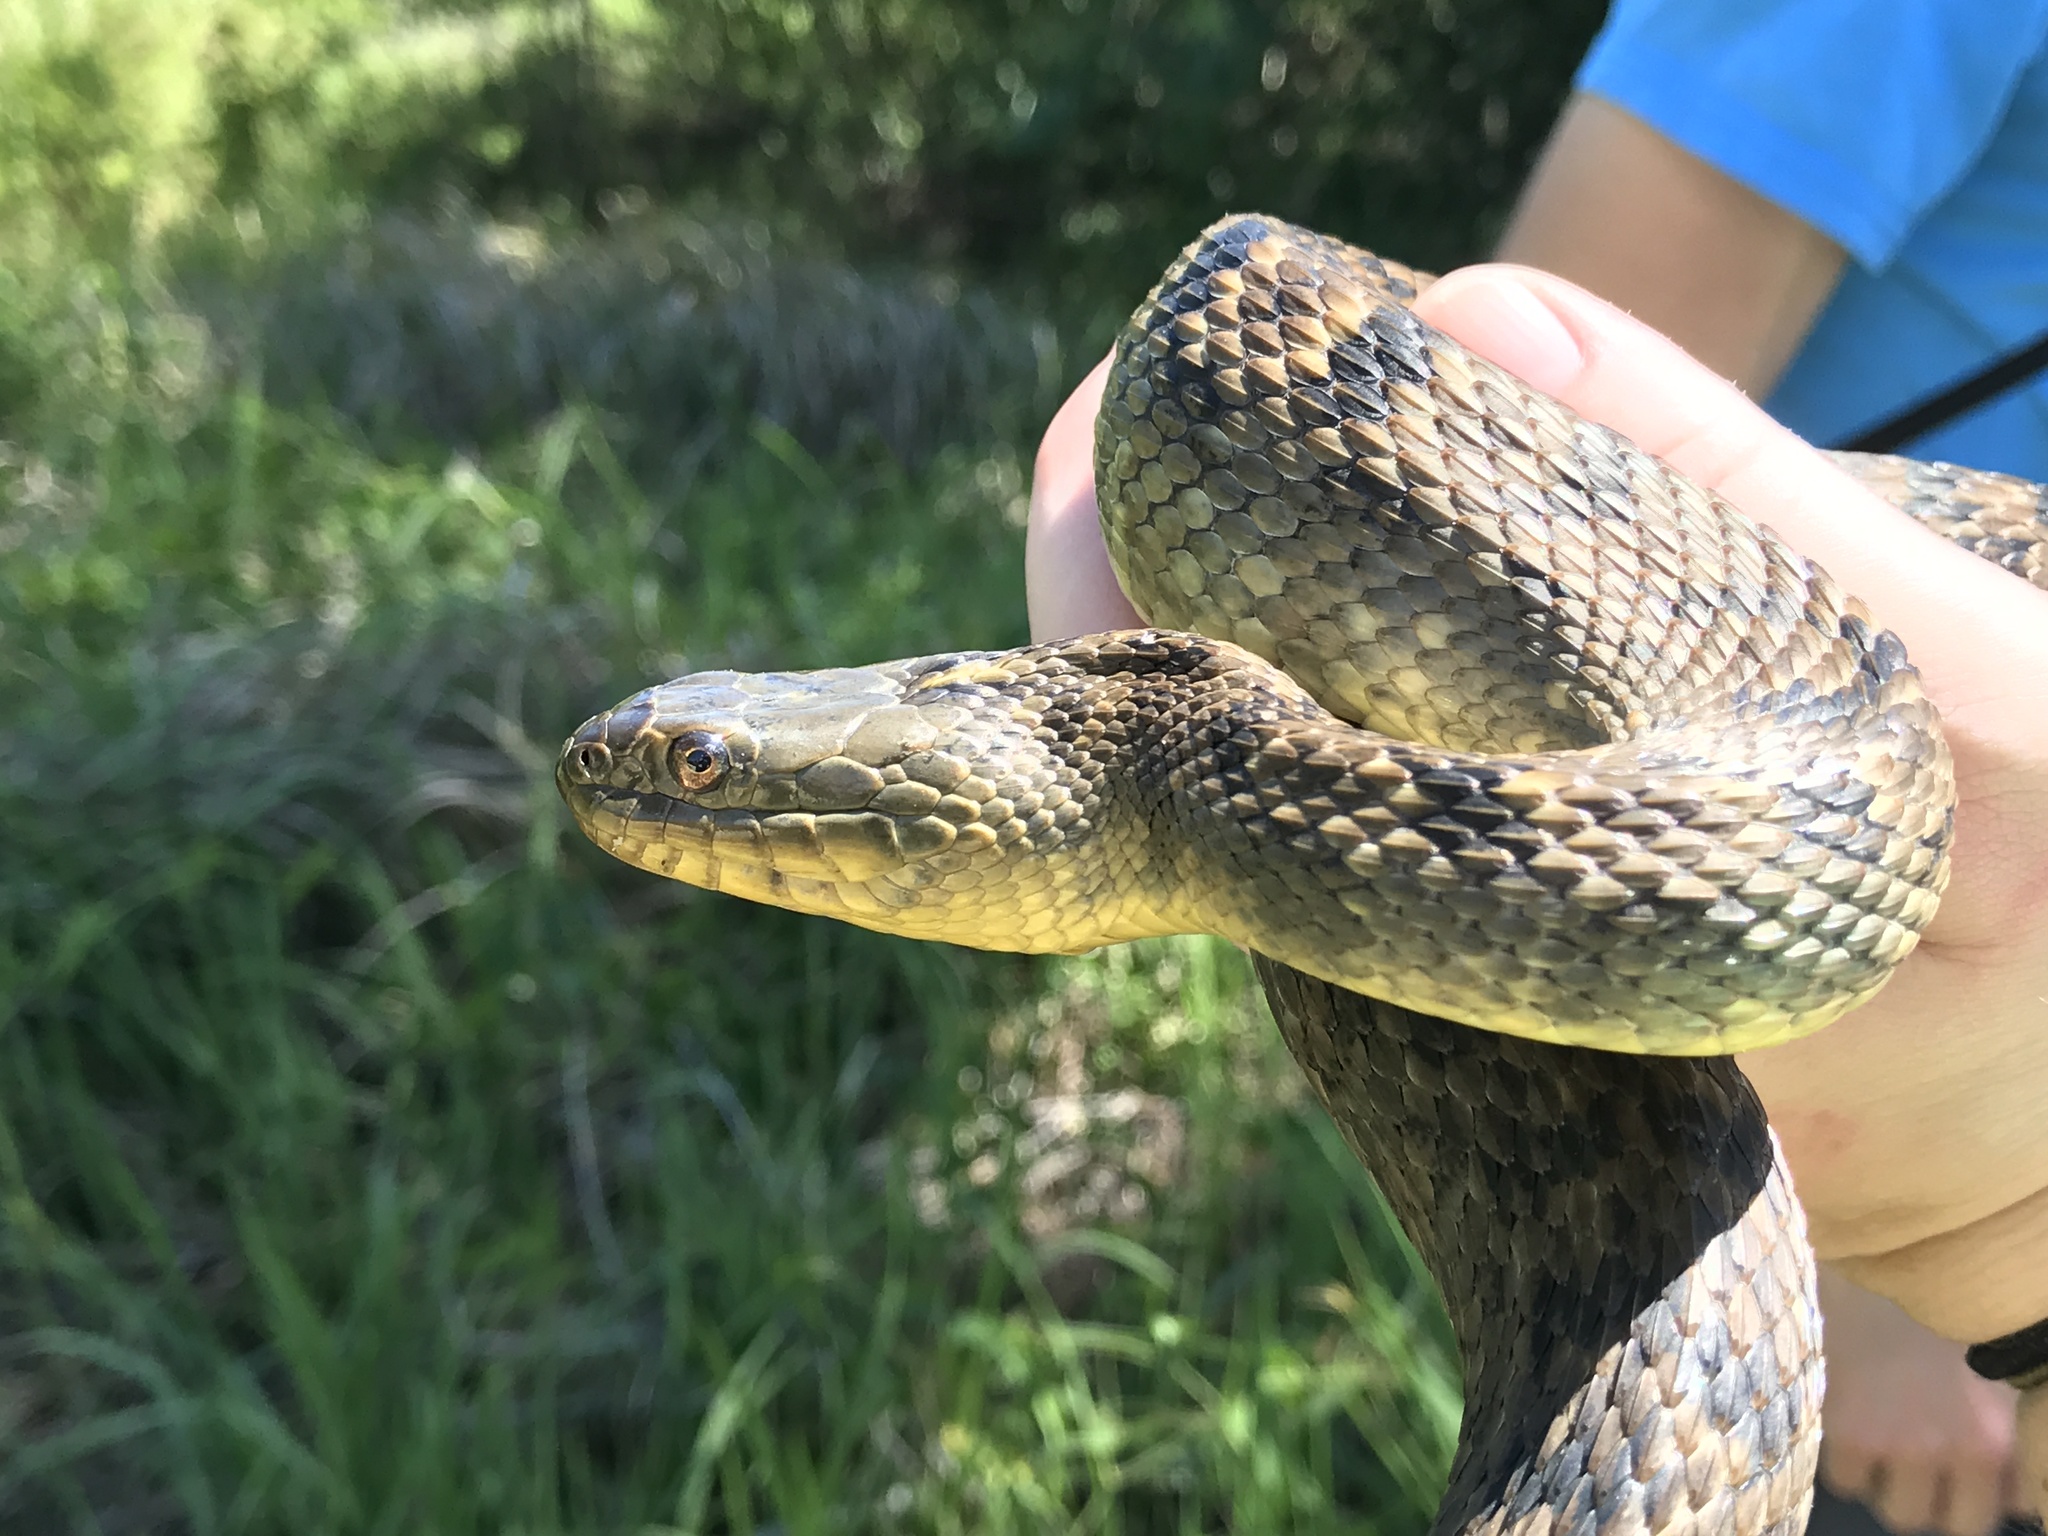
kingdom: Animalia
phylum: Chordata
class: Squamata
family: Colubridae
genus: Nerodia
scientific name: Nerodia cyclopion
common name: Mississippi green water snake
